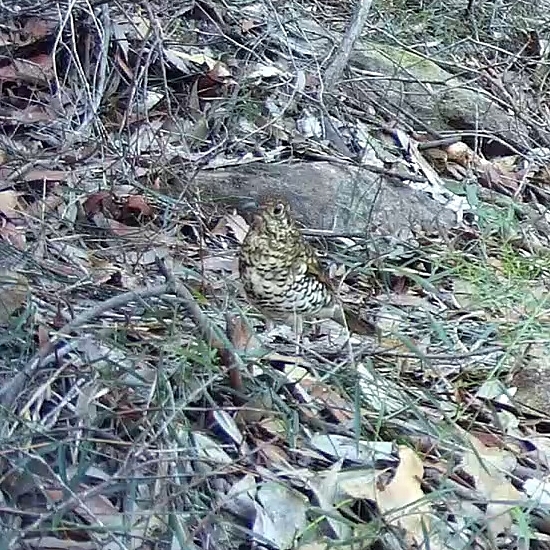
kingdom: Animalia
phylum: Chordata
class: Aves
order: Passeriformes
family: Turdidae
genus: Zoothera
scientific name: Zoothera lunulata
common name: Bassian thrush
